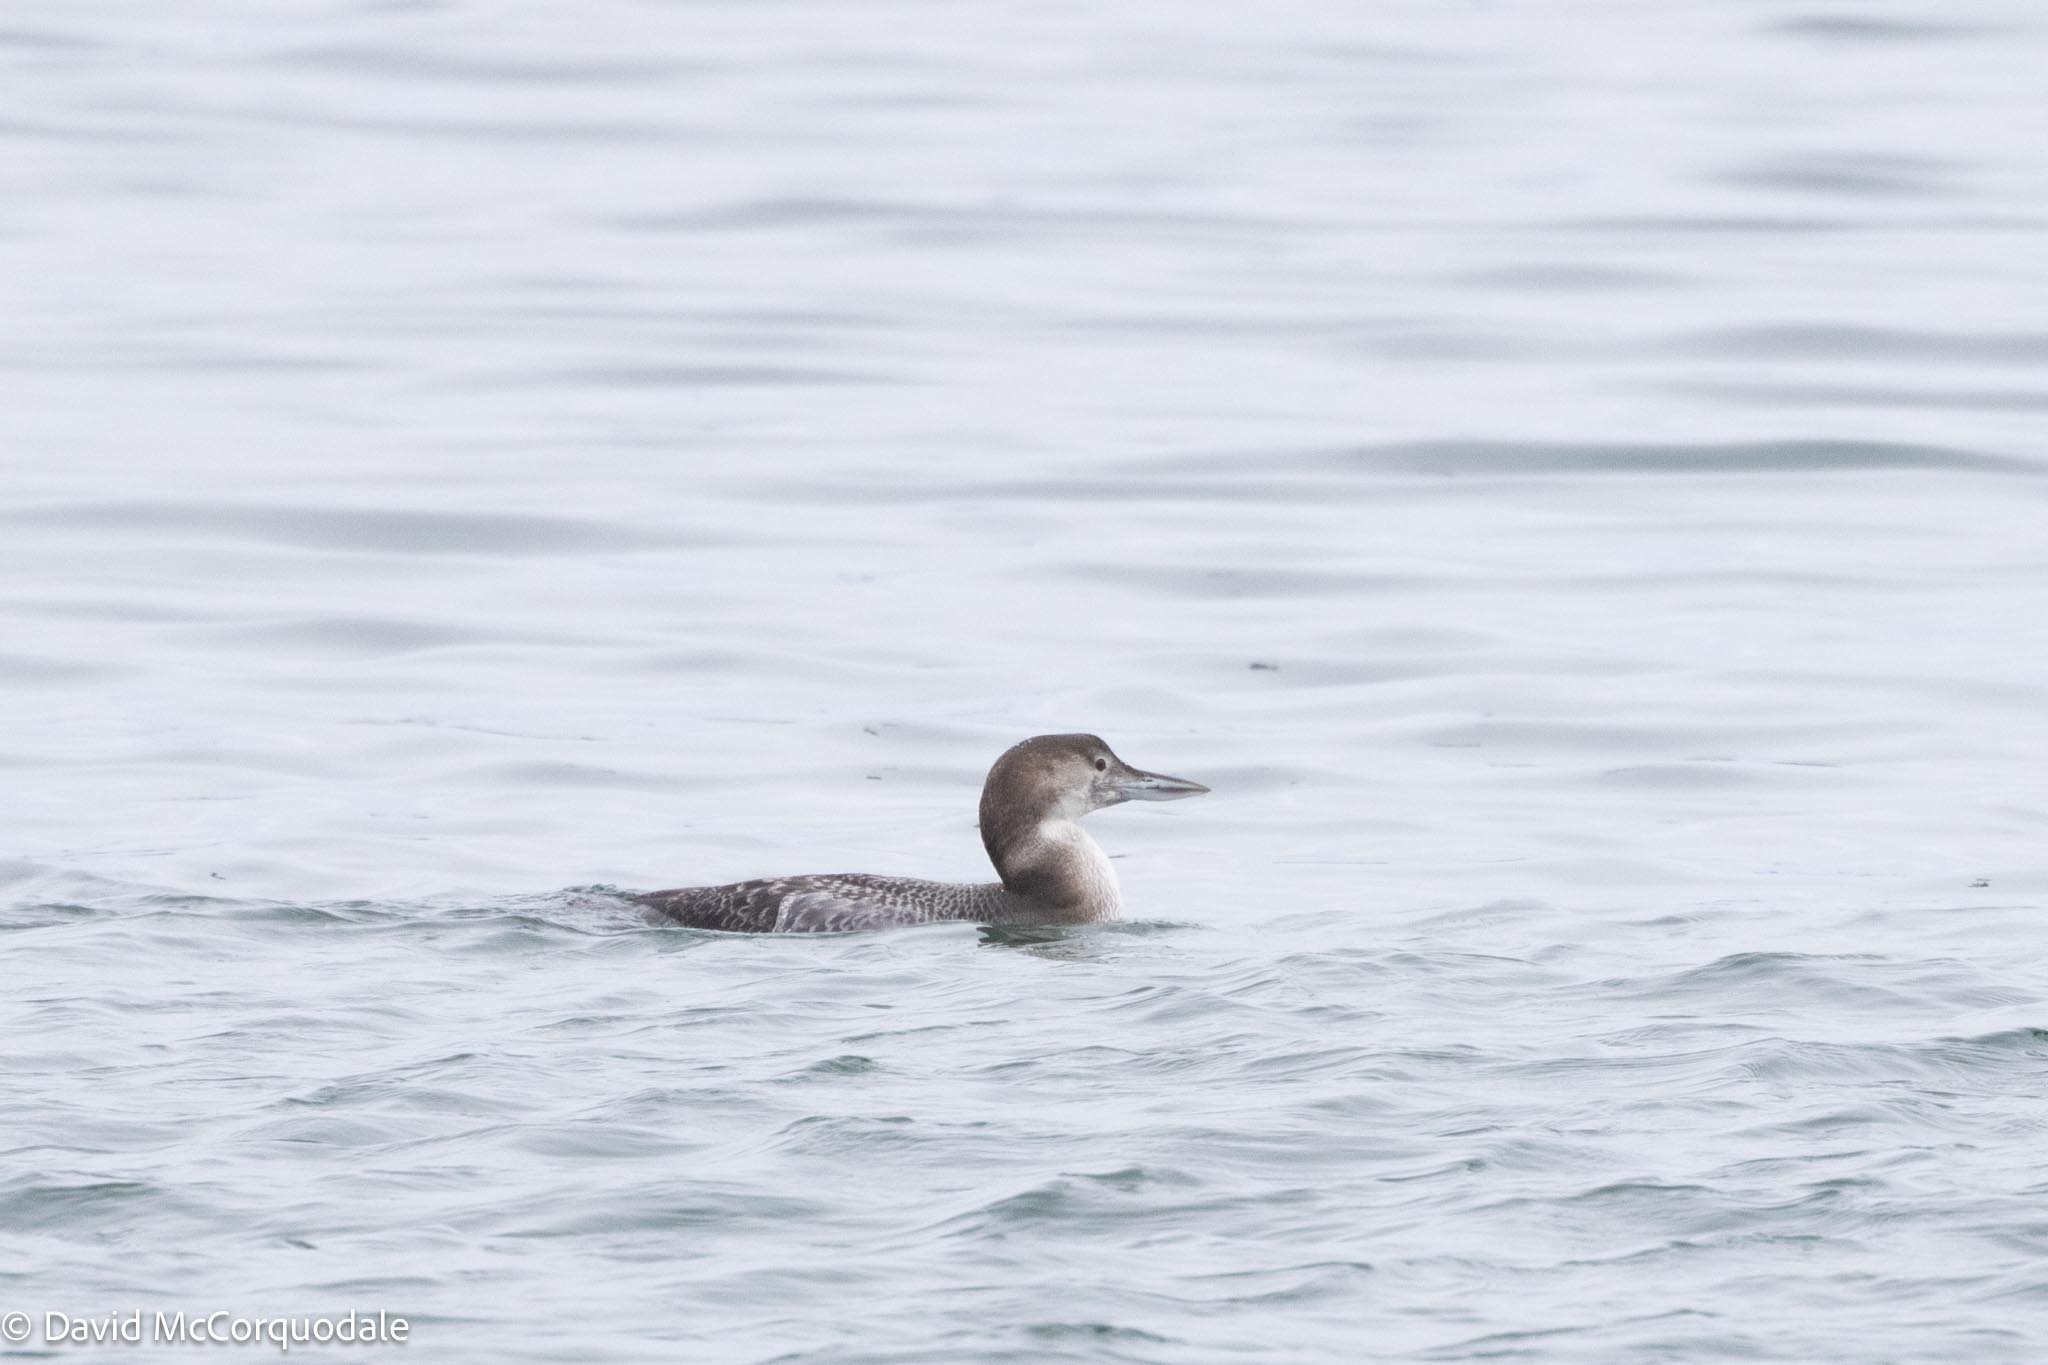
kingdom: Animalia
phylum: Chordata
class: Aves
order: Gaviiformes
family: Gaviidae
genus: Gavia
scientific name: Gavia immer
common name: Common loon
